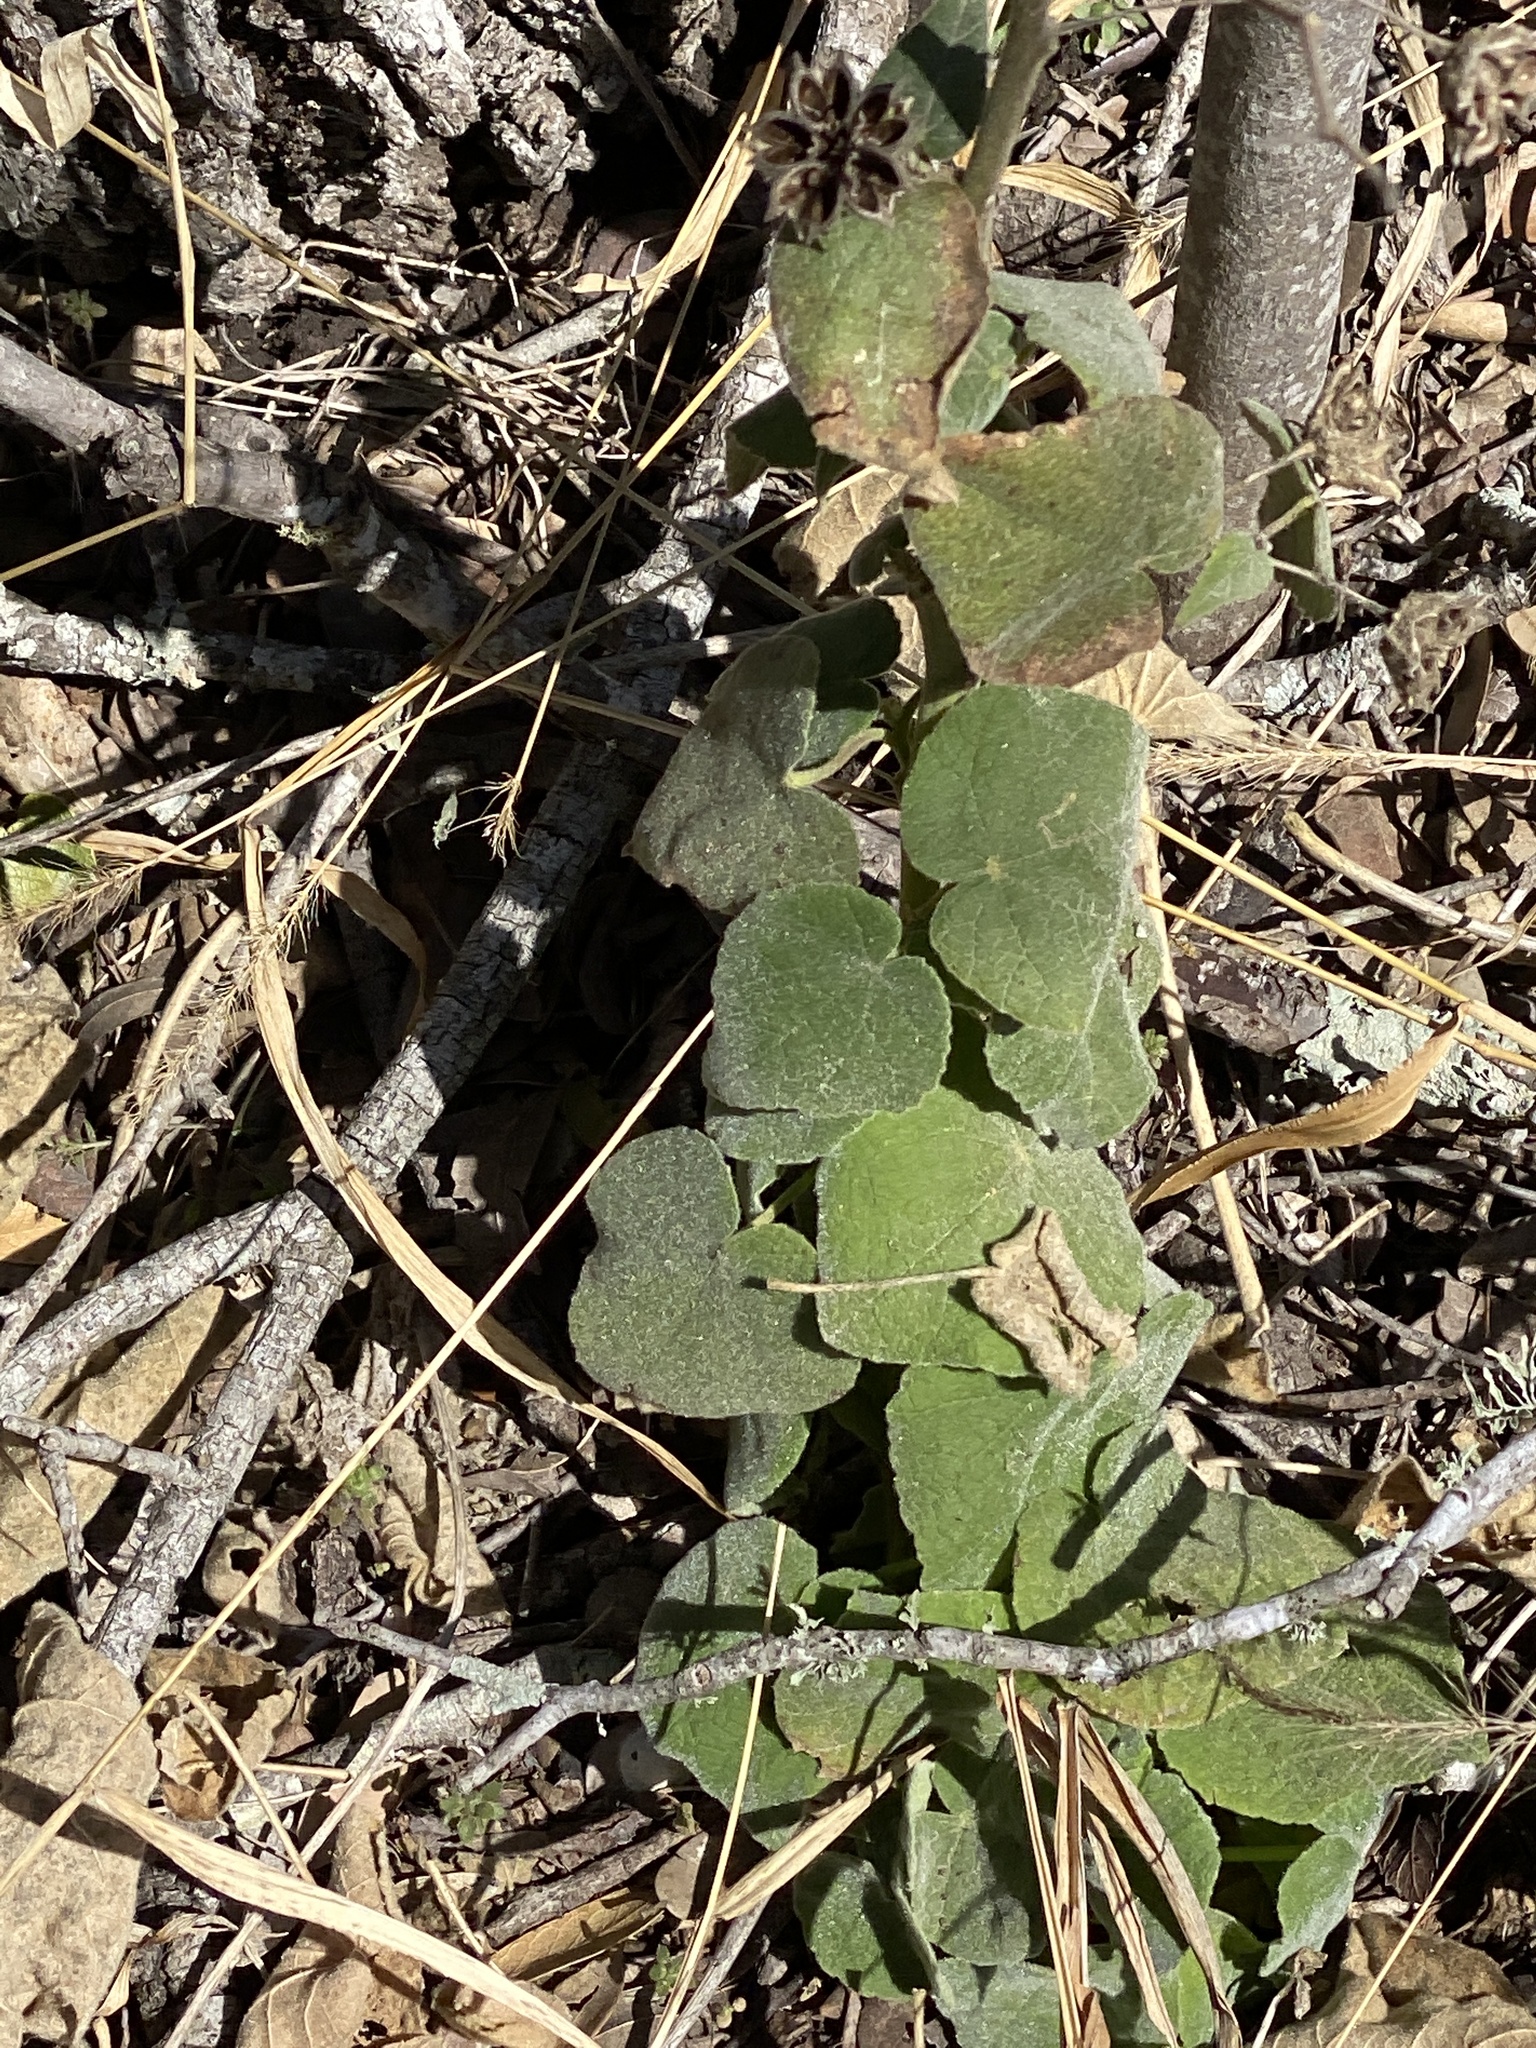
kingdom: Plantae
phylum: Tracheophyta
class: Magnoliopsida
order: Malvales
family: Malvaceae
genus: Allowissadula
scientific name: Allowissadula holosericea
